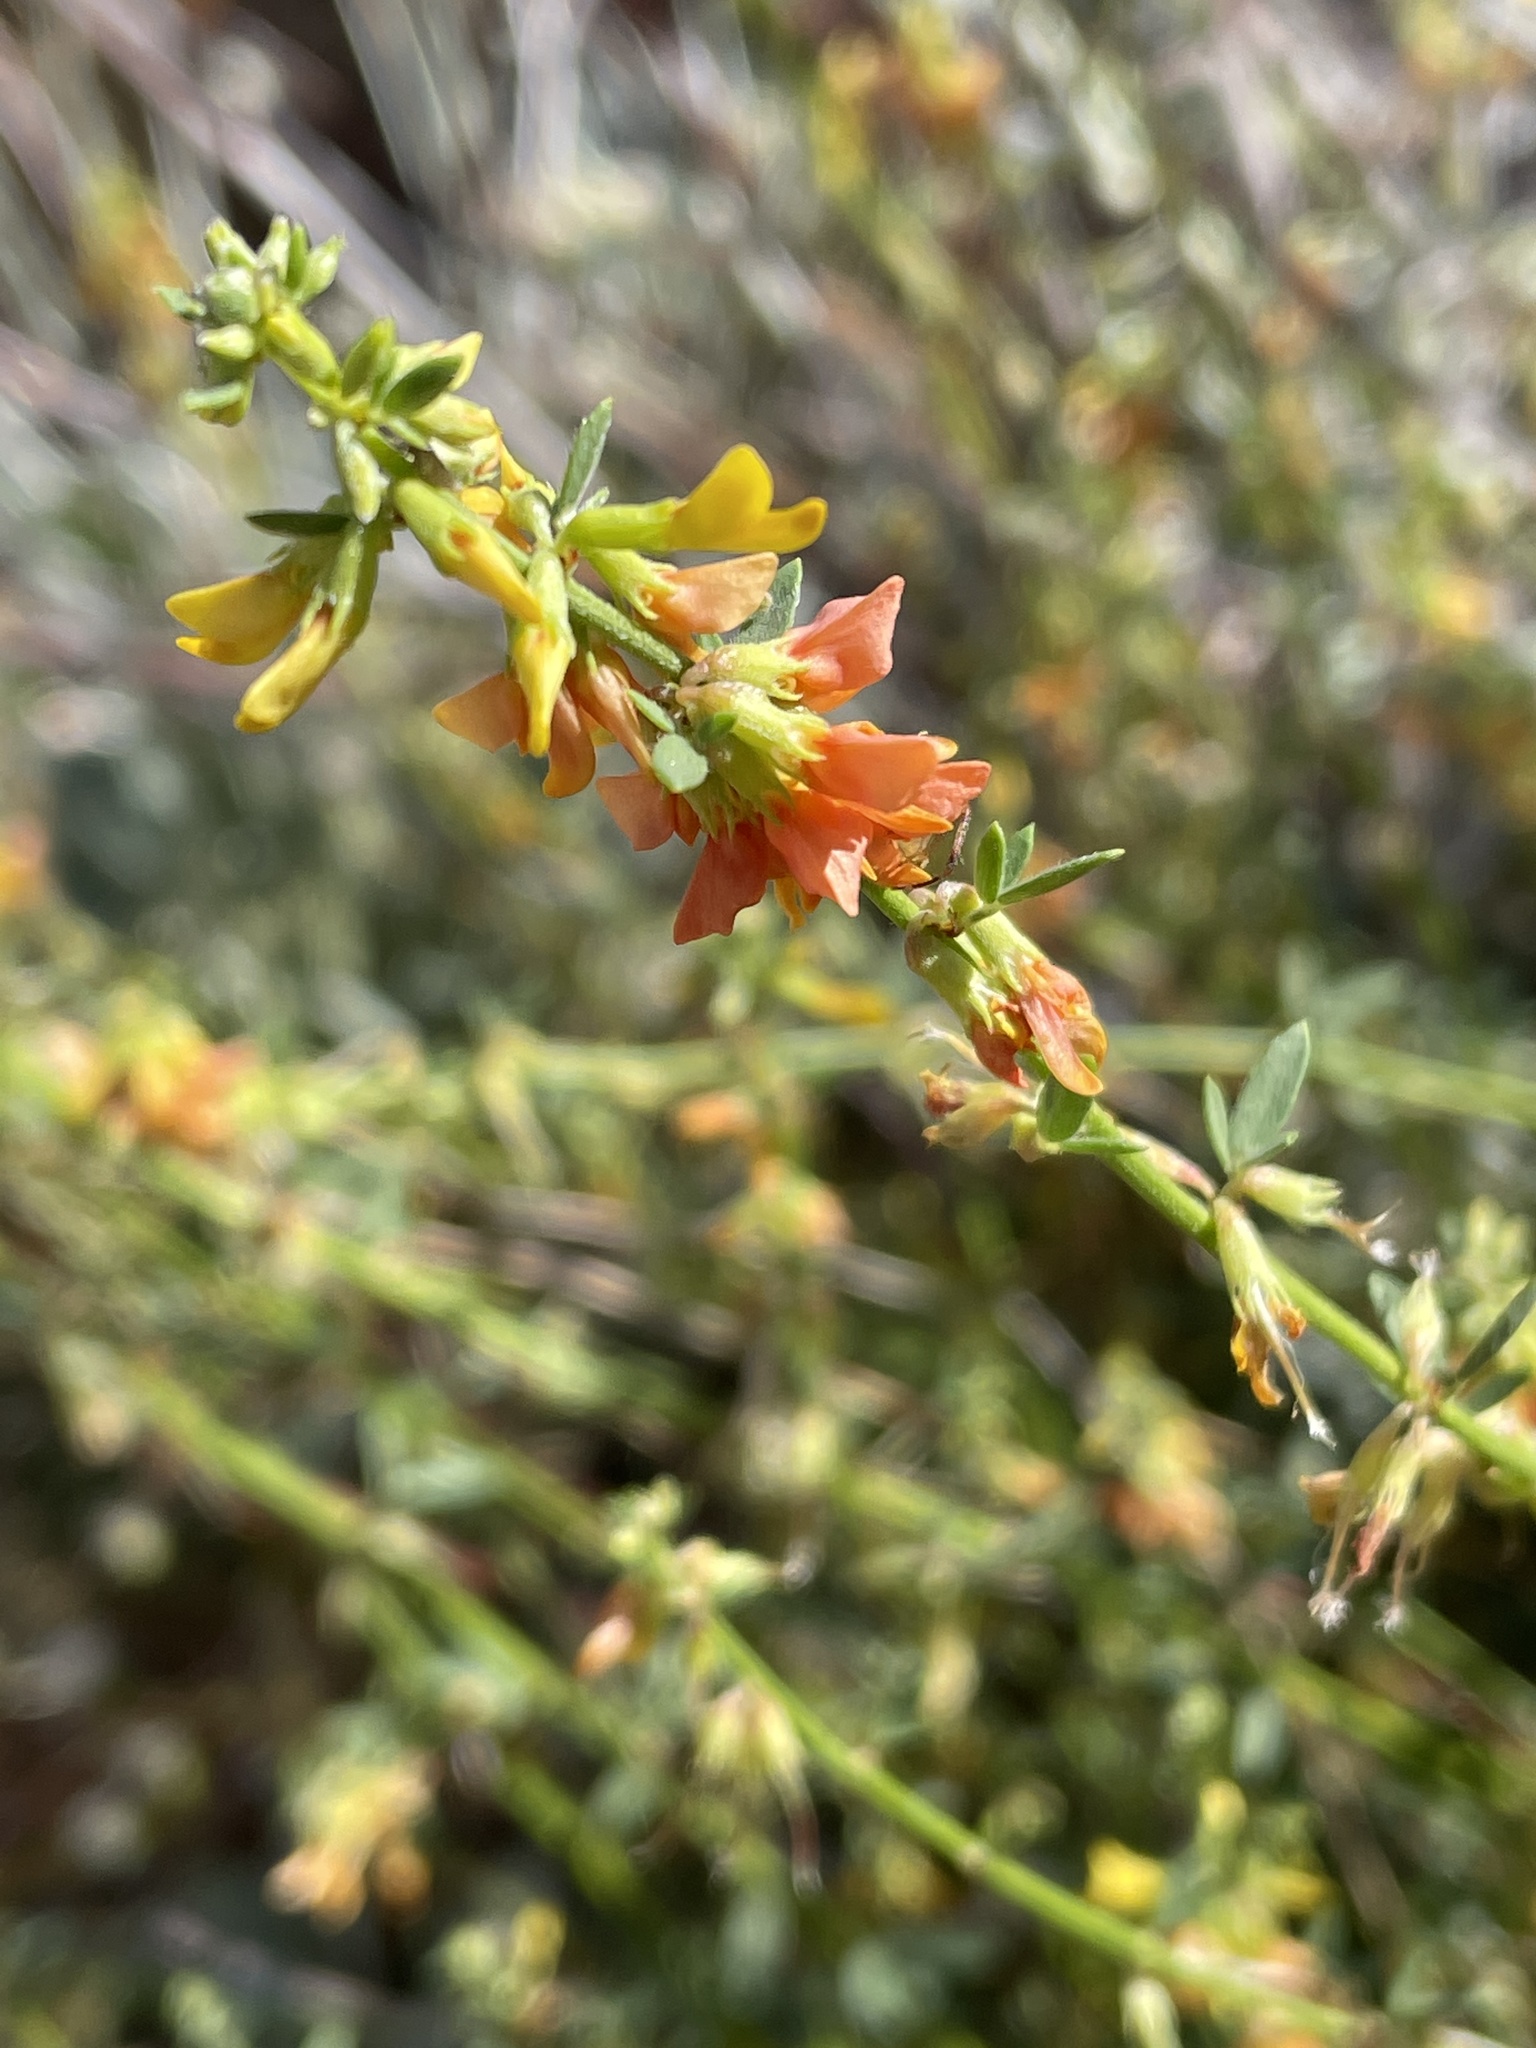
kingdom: Plantae
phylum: Tracheophyta
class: Magnoliopsida
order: Fabales
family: Fabaceae
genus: Acmispon
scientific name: Acmispon glaber
